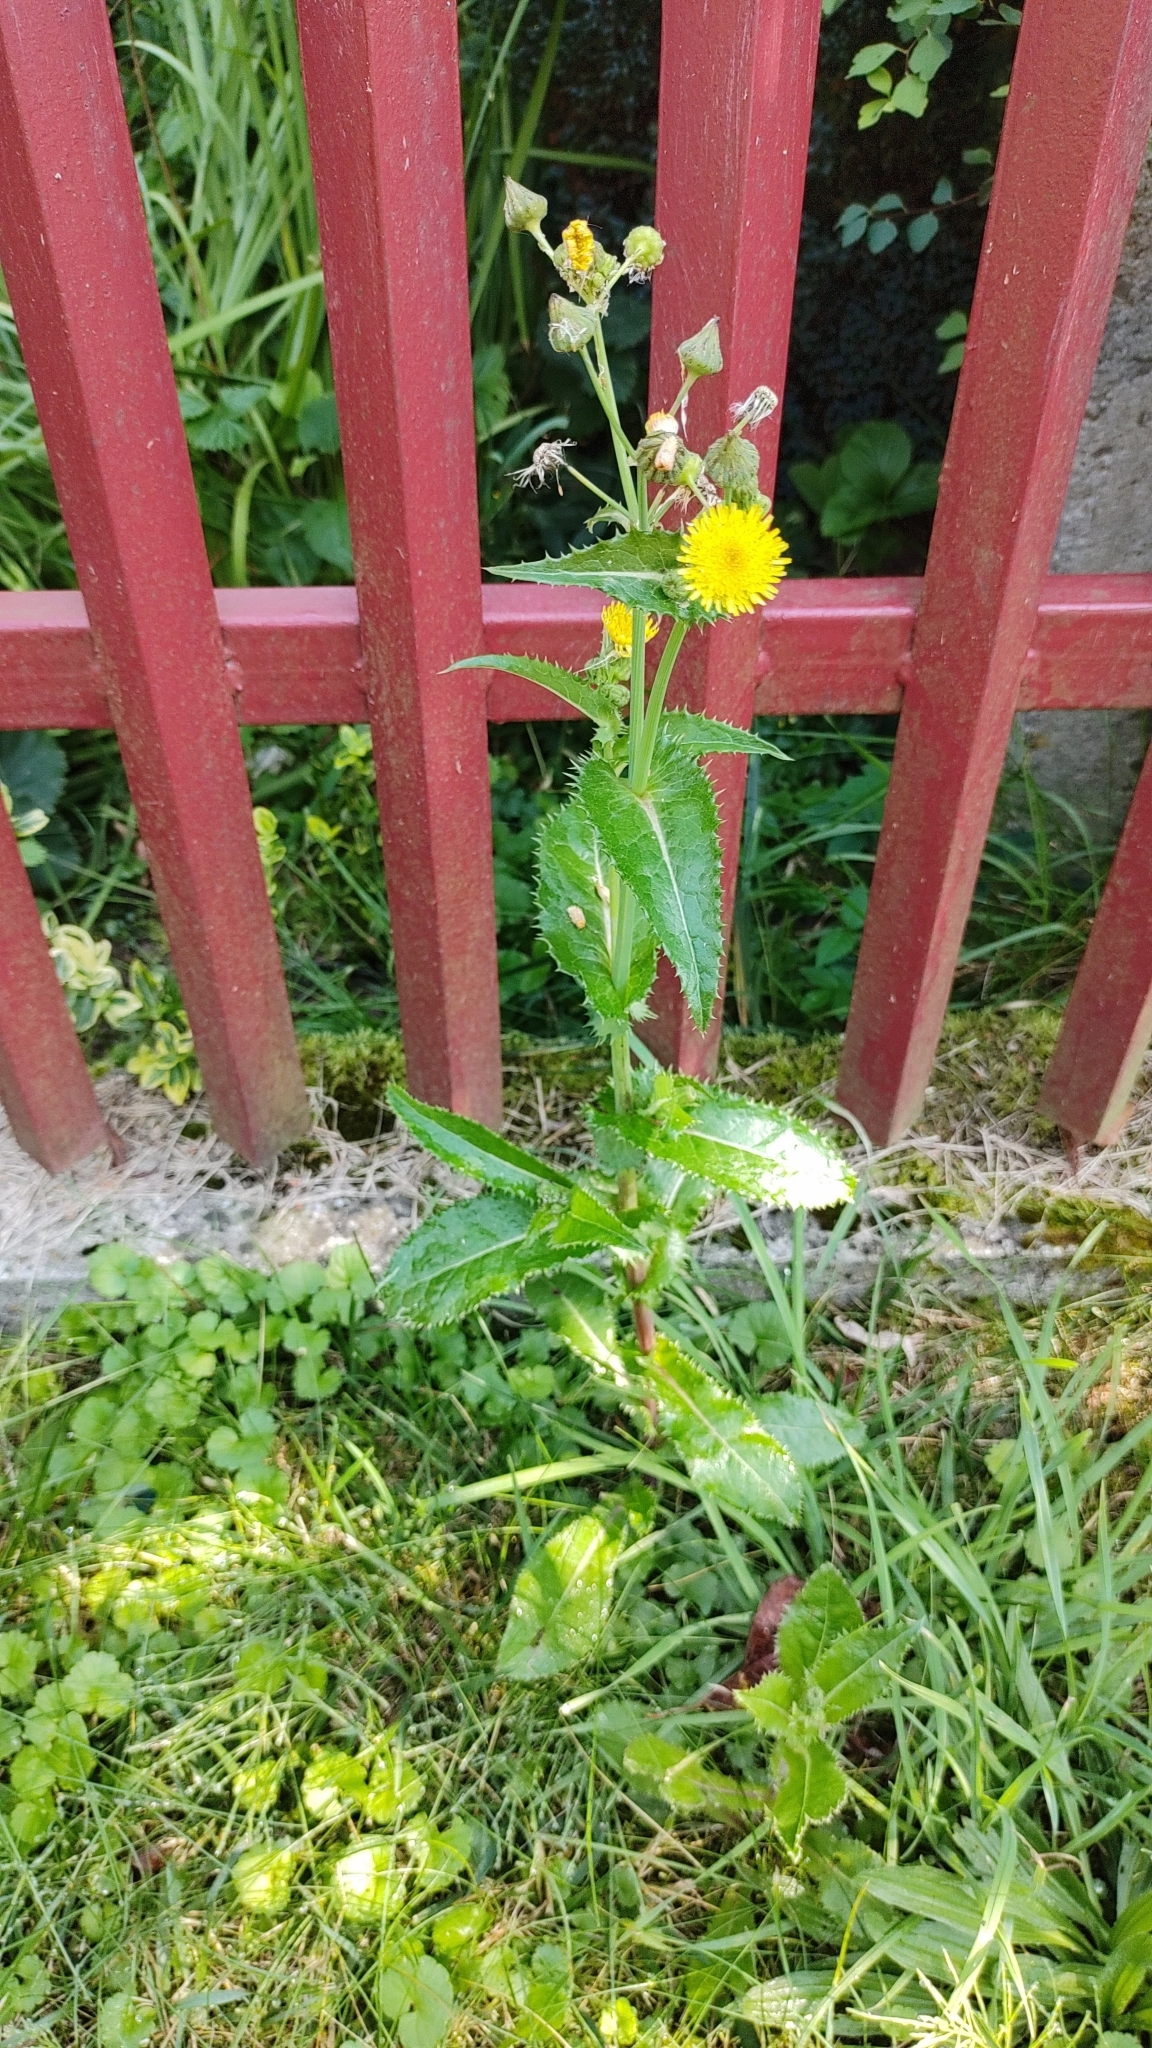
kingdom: Plantae
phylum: Tracheophyta
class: Magnoliopsida
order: Asterales
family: Asteraceae
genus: Sonchus
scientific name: Sonchus asper
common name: Prickly sow-thistle
